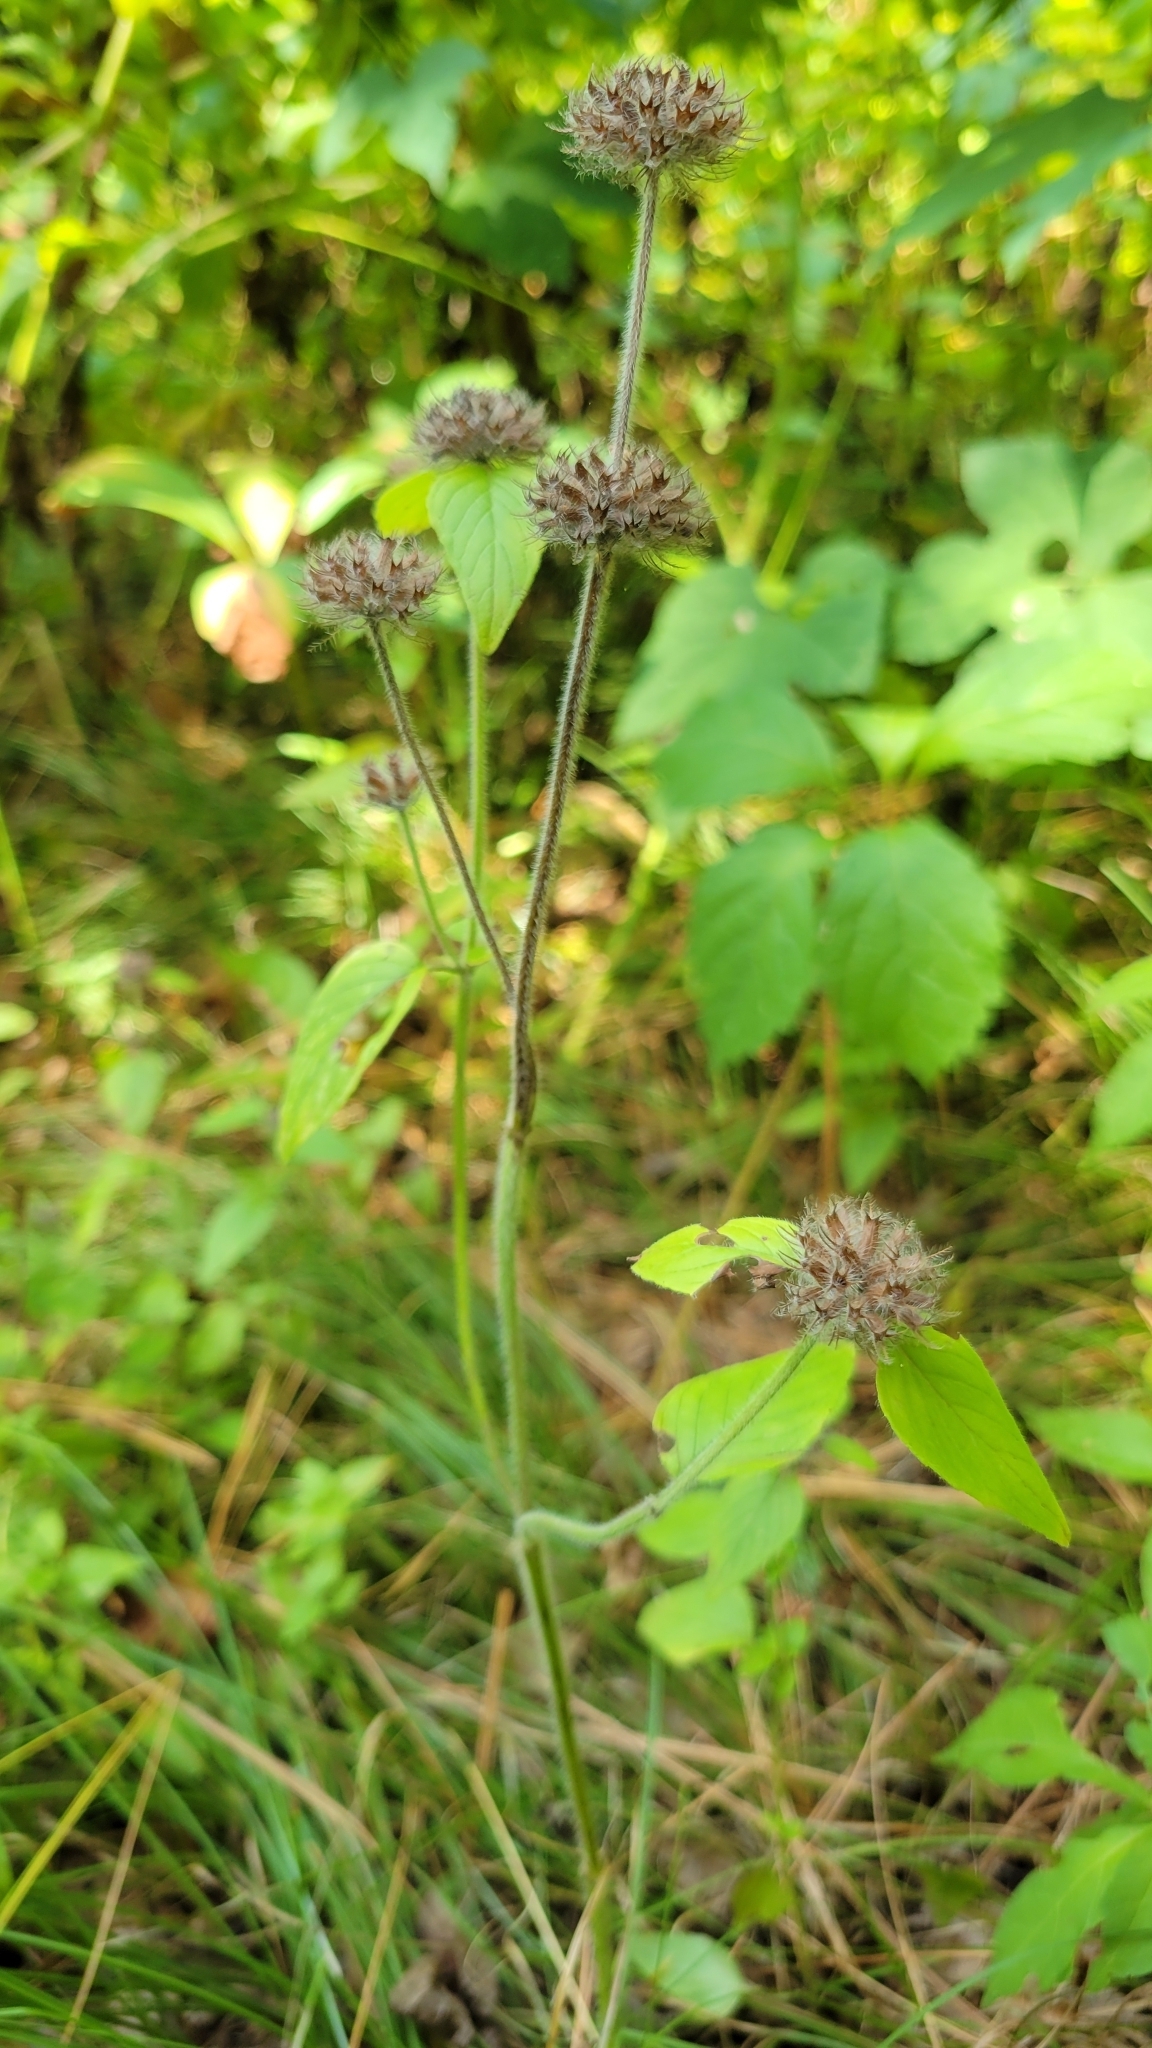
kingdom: Plantae
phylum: Tracheophyta
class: Magnoliopsida
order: Lamiales
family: Lamiaceae
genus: Clinopodium
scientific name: Clinopodium vulgare
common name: Wild basil
